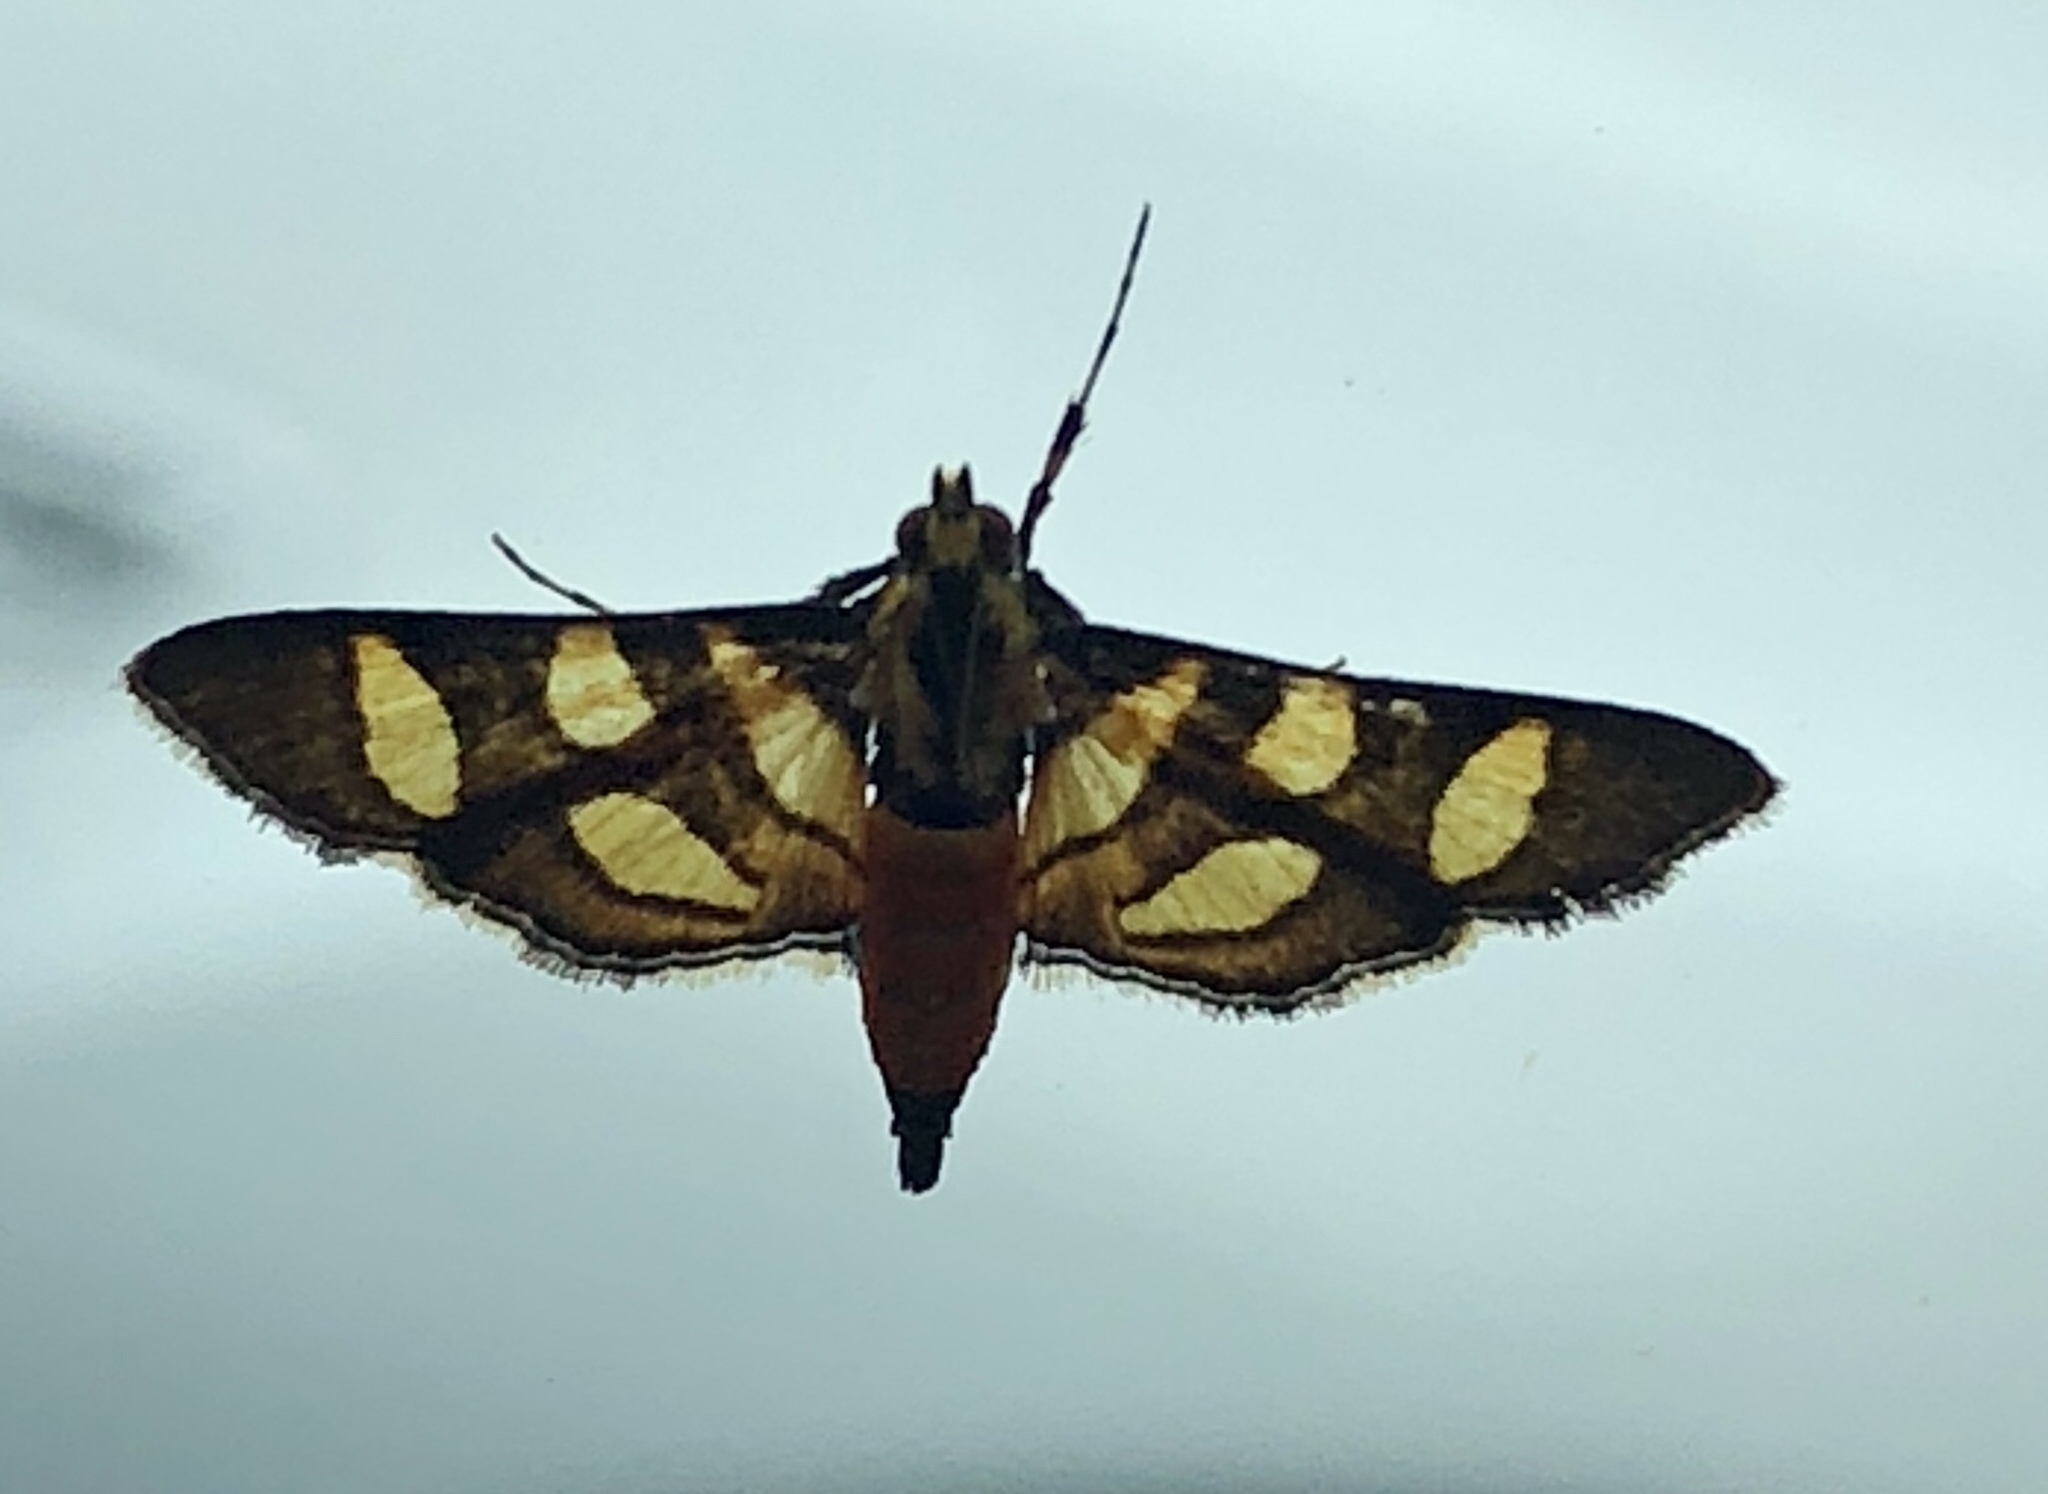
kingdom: Animalia
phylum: Arthropoda
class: Insecta
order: Lepidoptera
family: Crambidae
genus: Syngamia
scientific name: Syngamia florella
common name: Orange-spotted flower moth
